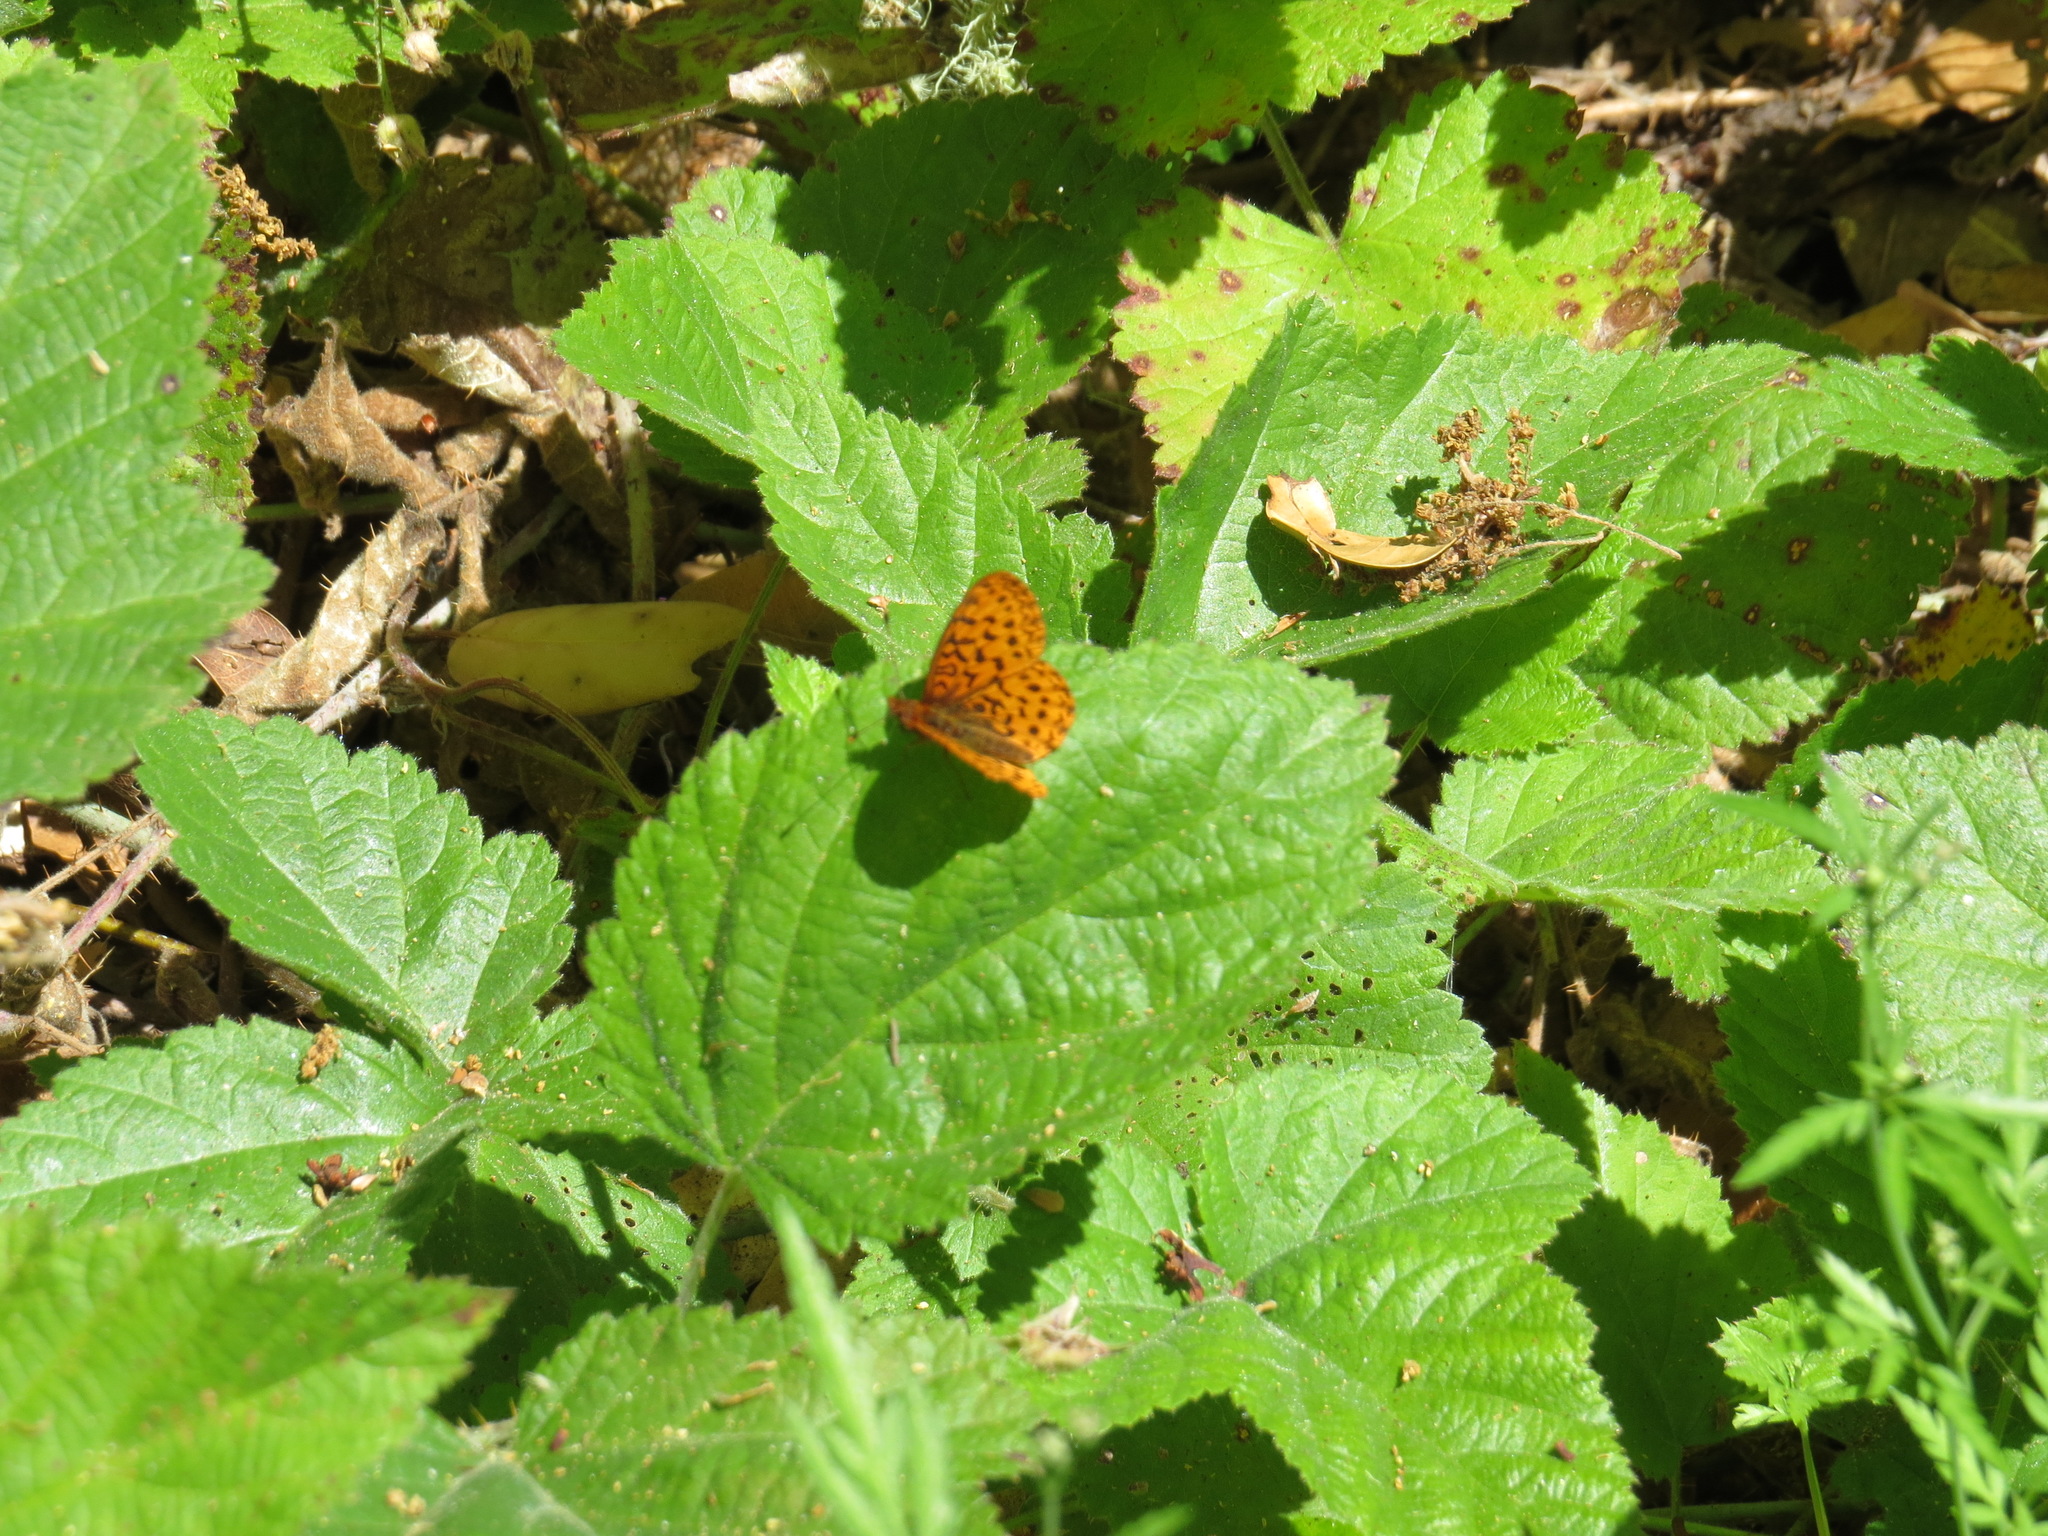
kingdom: Animalia
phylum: Arthropoda
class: Insecta
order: Lepidoptera
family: Nymphalidae
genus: Boloria
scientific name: Boloria epithore
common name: Pacific fritillary
